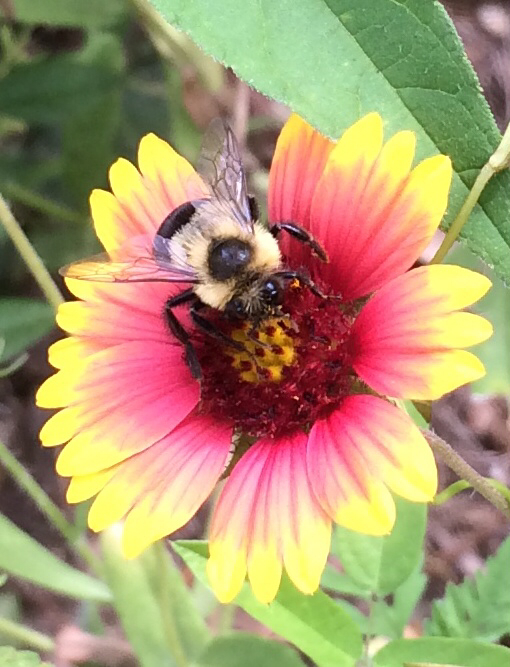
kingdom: Plantae
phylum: Tracheophyta
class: Magnoliopsida
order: Asterales
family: Asteraceae
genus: Gaillardia
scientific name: Gaillardia pulchella
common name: Firewheel
